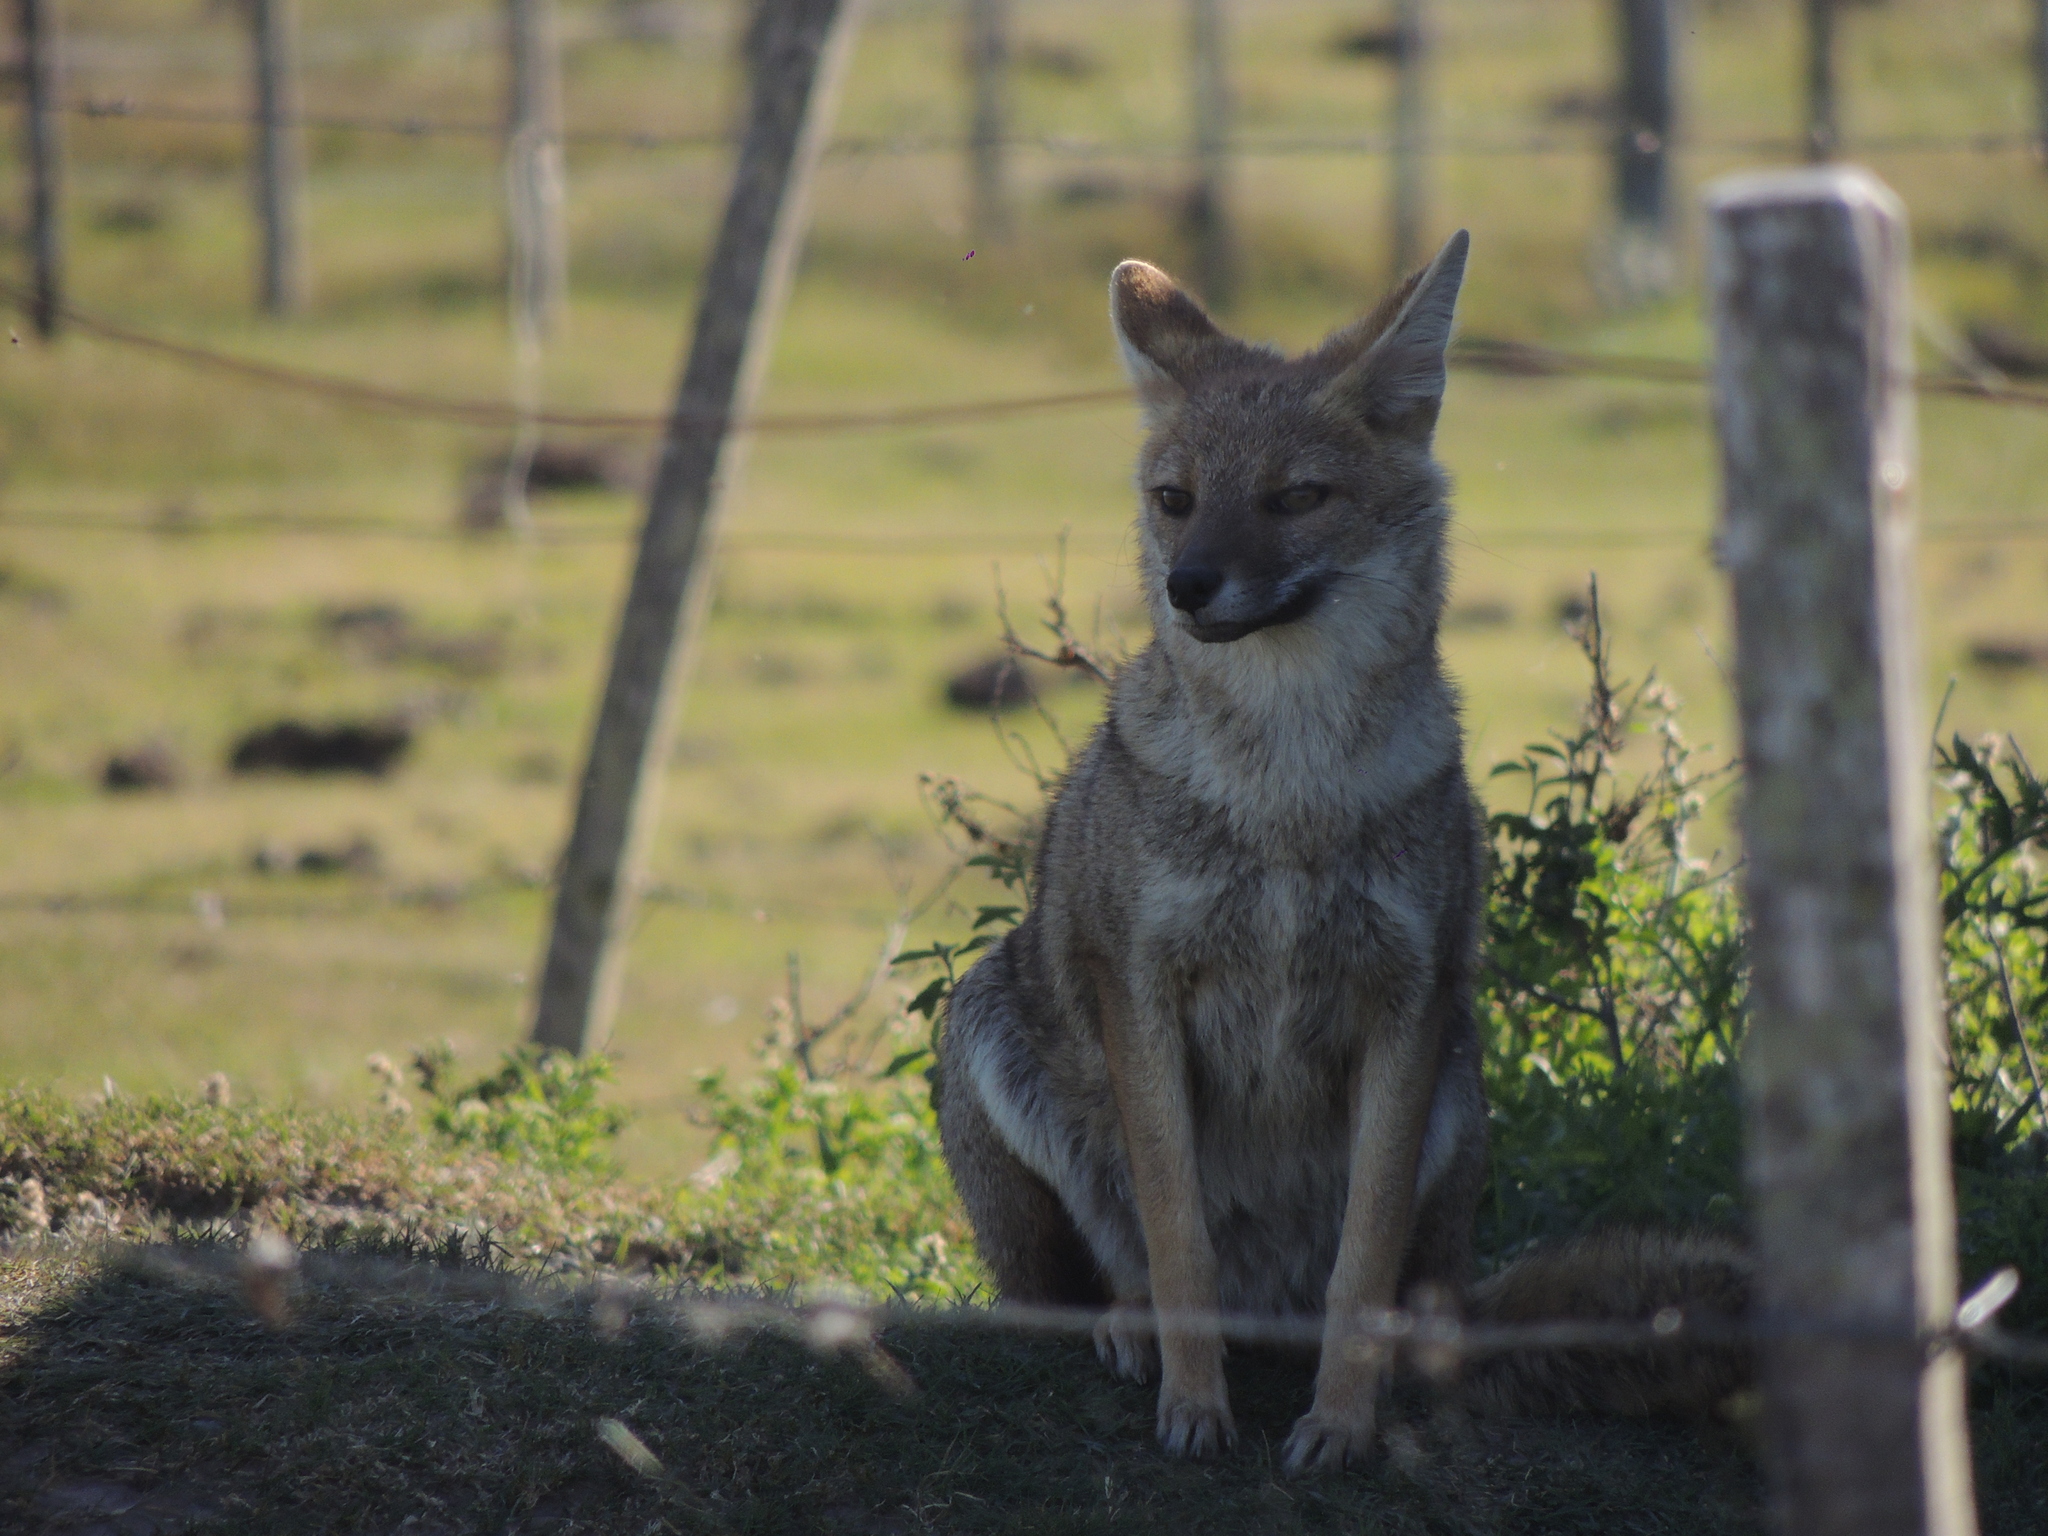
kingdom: Animalia
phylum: Chordata
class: Mammalia
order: Carnivora
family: Canidae
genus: Lycalopex
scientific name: Lycalopex gymnocercus
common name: Pampas fox
